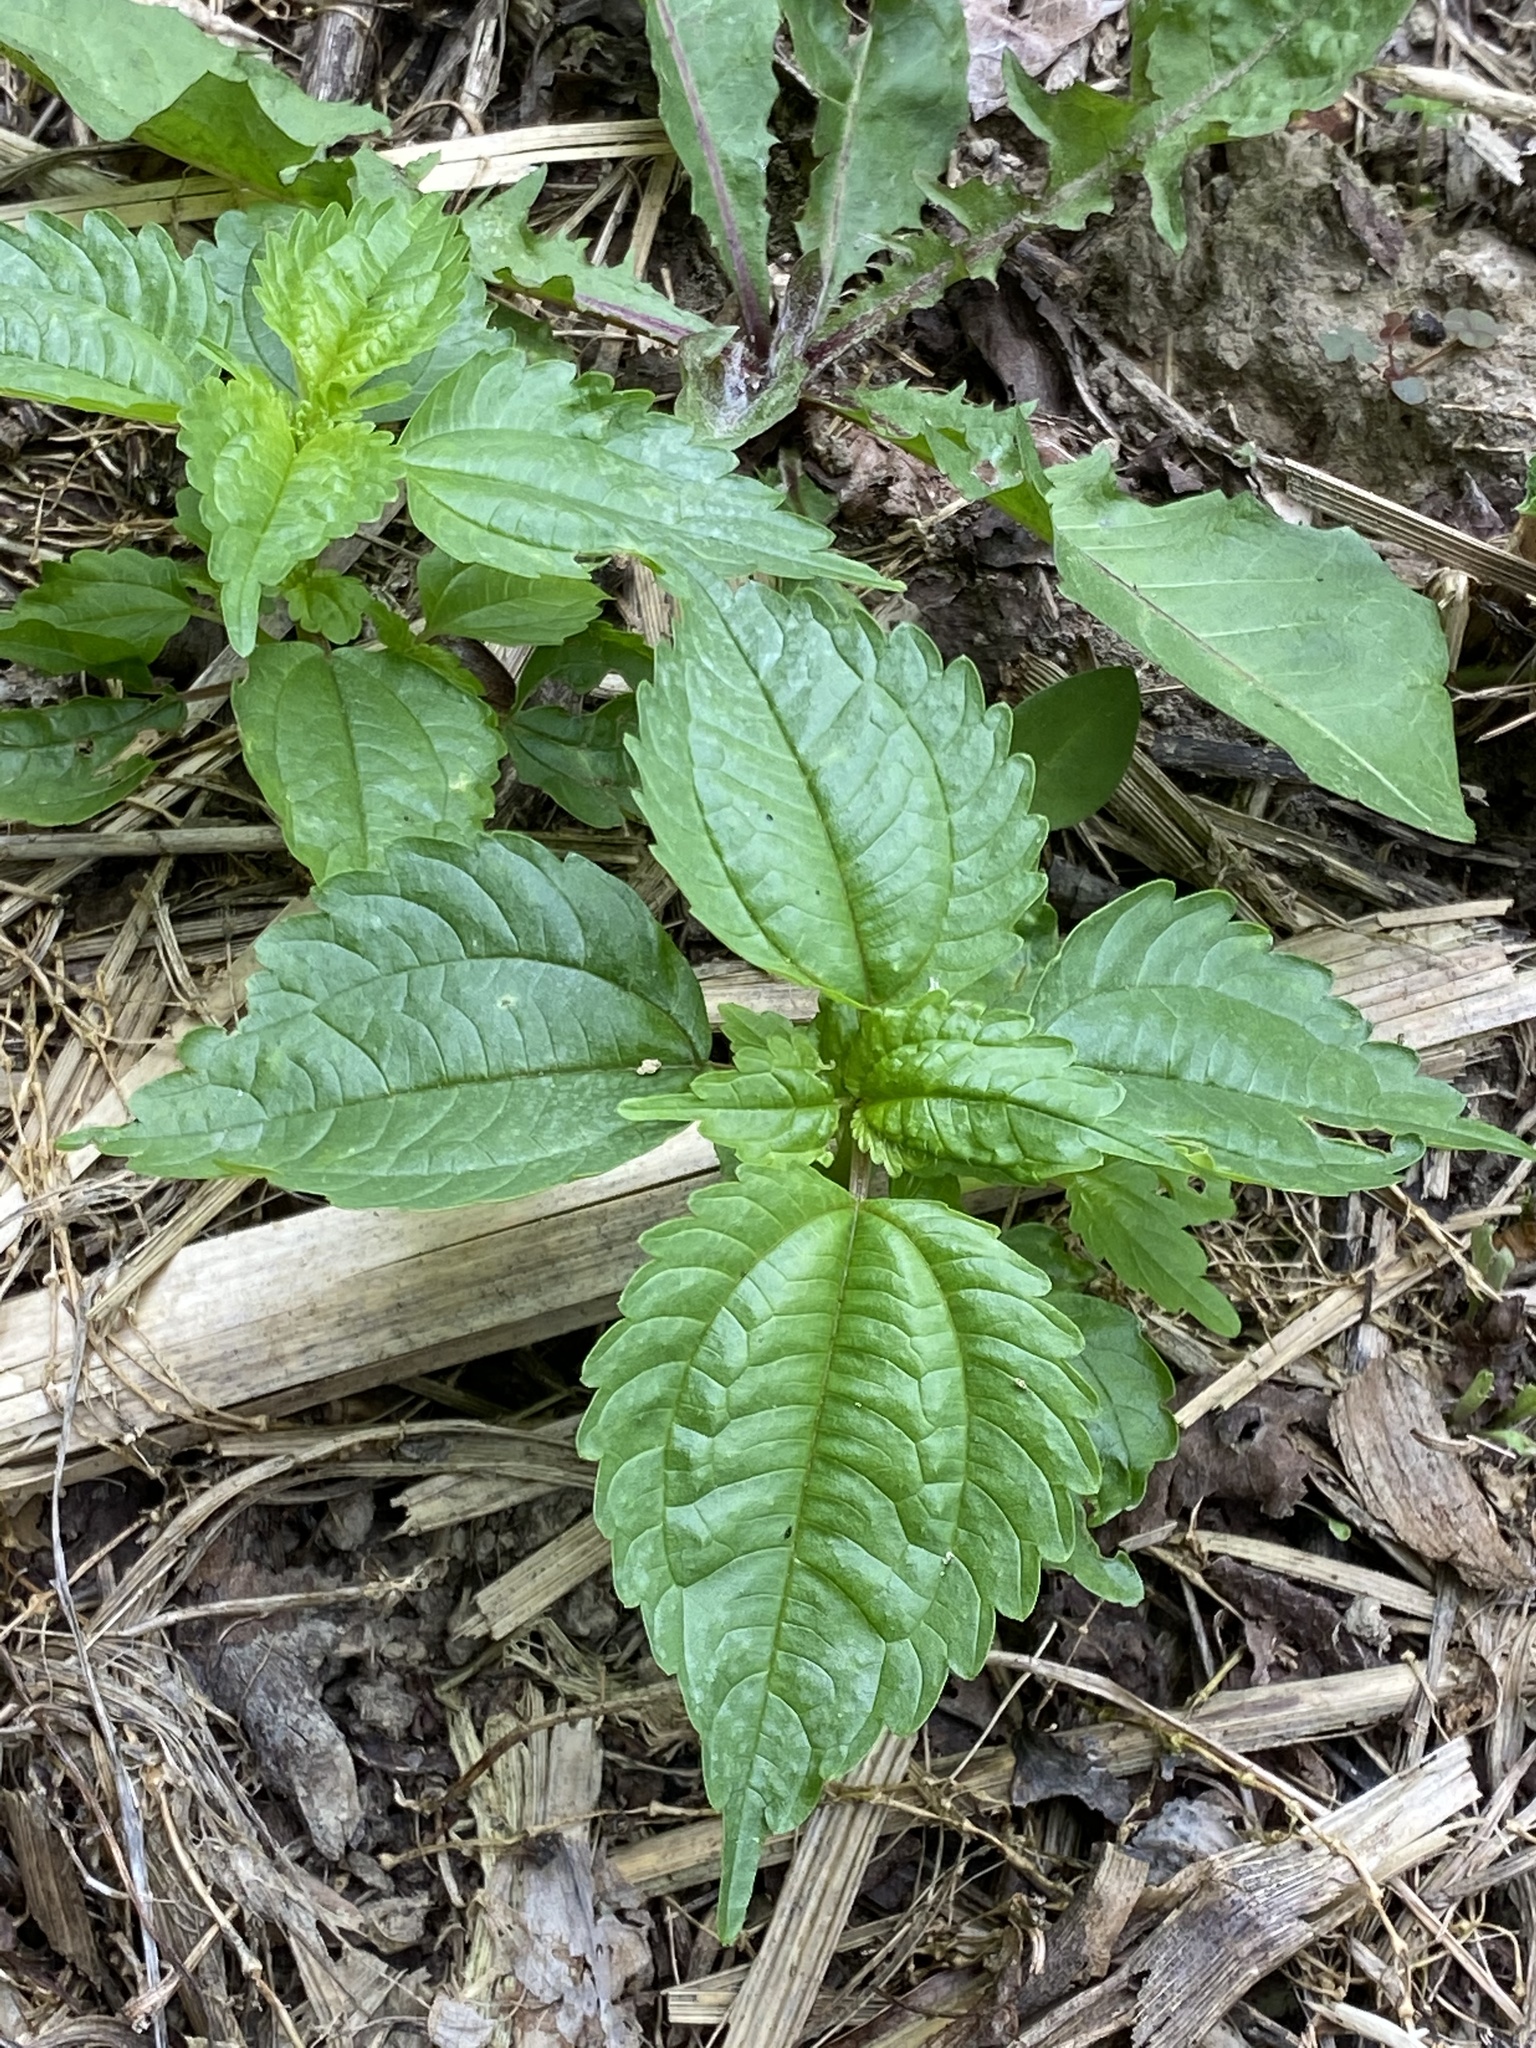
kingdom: Plantae
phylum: Tracheophyta
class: Magnoliopsida
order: Rosales
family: Urticaceae
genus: Pilea
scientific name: Pilea pumila
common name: Clearweed
